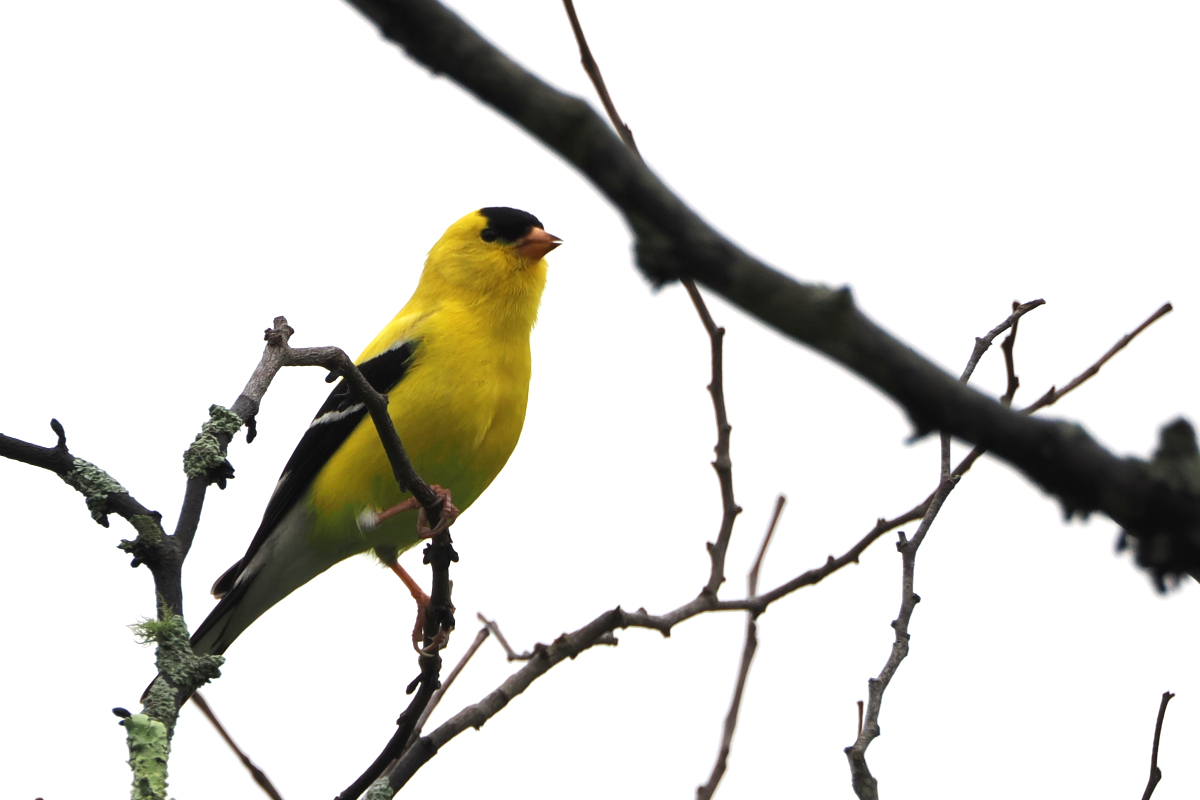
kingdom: Animalia
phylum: Chordata
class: Aves
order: Passeriformes
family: Fringillidae
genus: Spinus
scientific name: Spinus tristis
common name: American goldfinch
